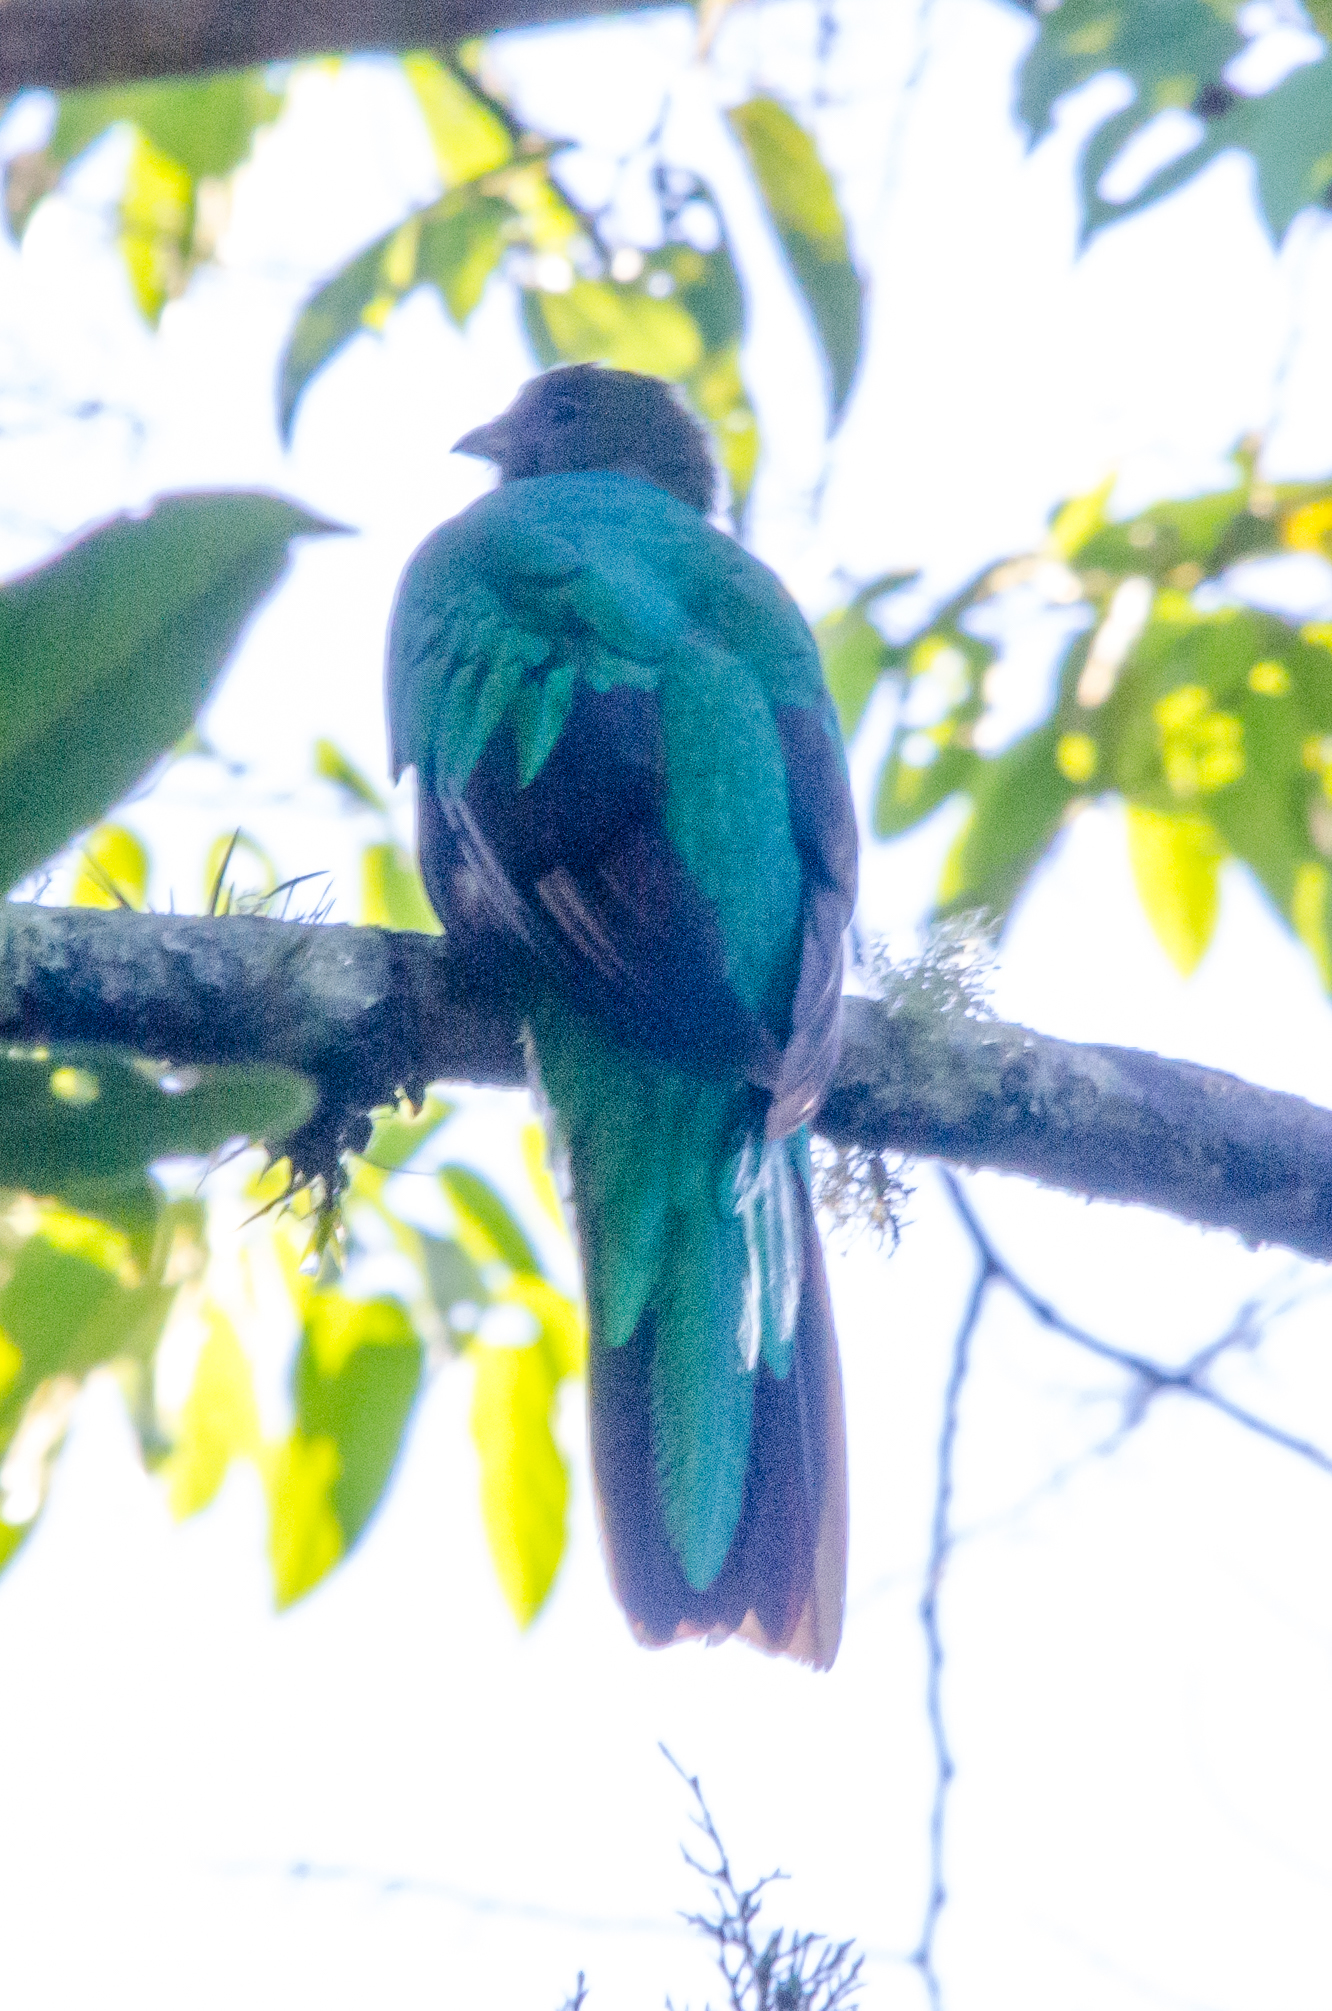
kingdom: Animalia
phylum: Chordata
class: Aves
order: Trogoniformes
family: Trogonidae
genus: Pharomachrus
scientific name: Pharomachrus mocinno
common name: Resplendent quetzal
